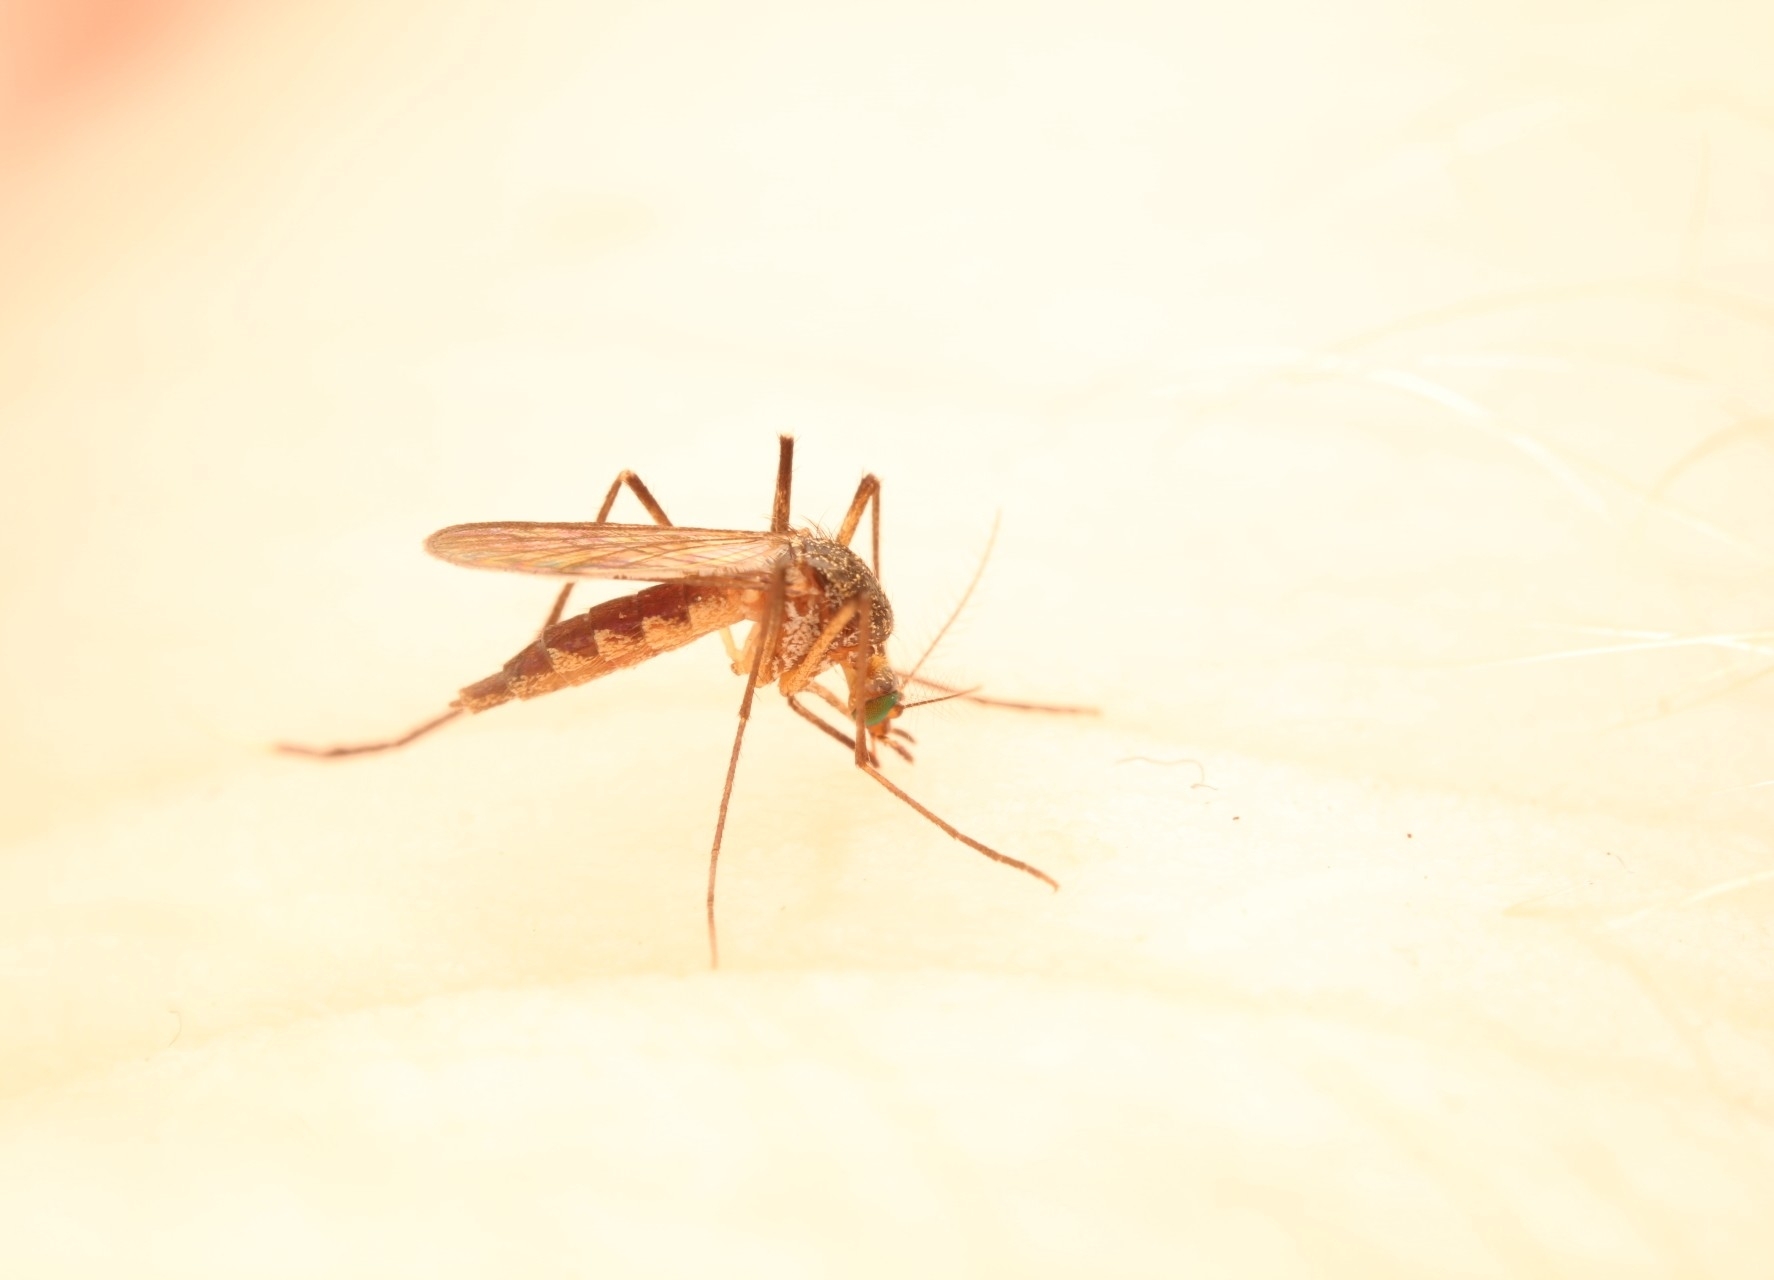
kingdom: Animalia
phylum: Arthropoda
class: Insecta
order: Diptera
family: Culicidae
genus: Psorophora
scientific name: Psorophora ferox
